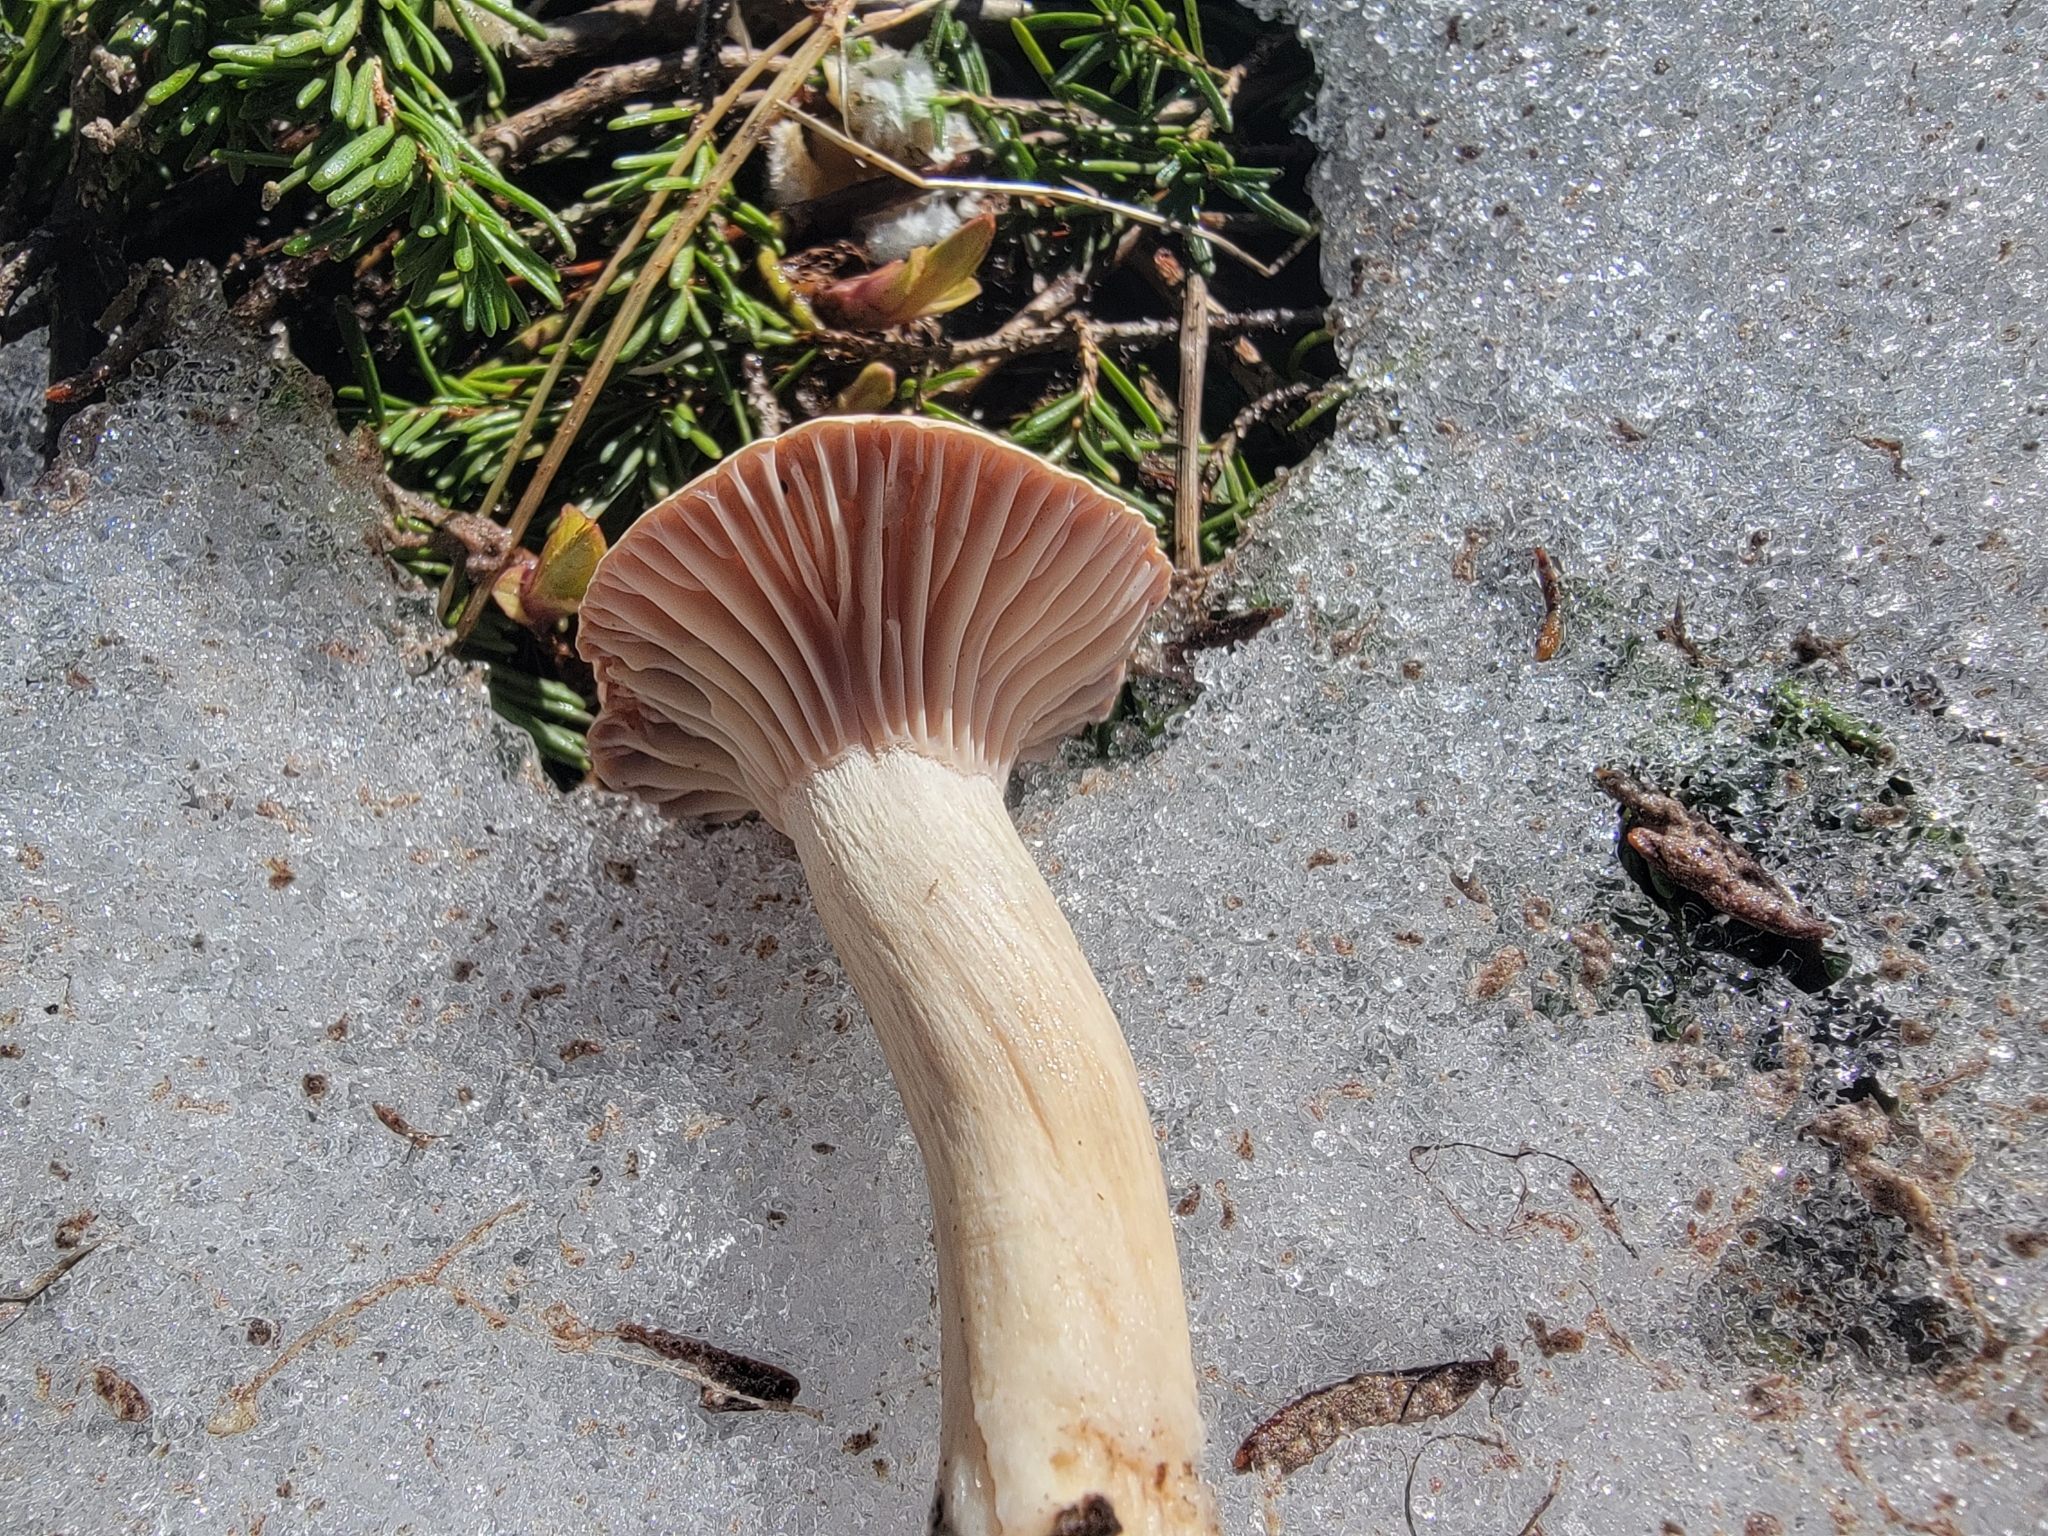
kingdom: Fungi
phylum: Basidiomycota
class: Agaricomycetes
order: Agaricales
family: Hygrophoraceae
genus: Hygrophorus
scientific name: Hygrophorus goetzei
